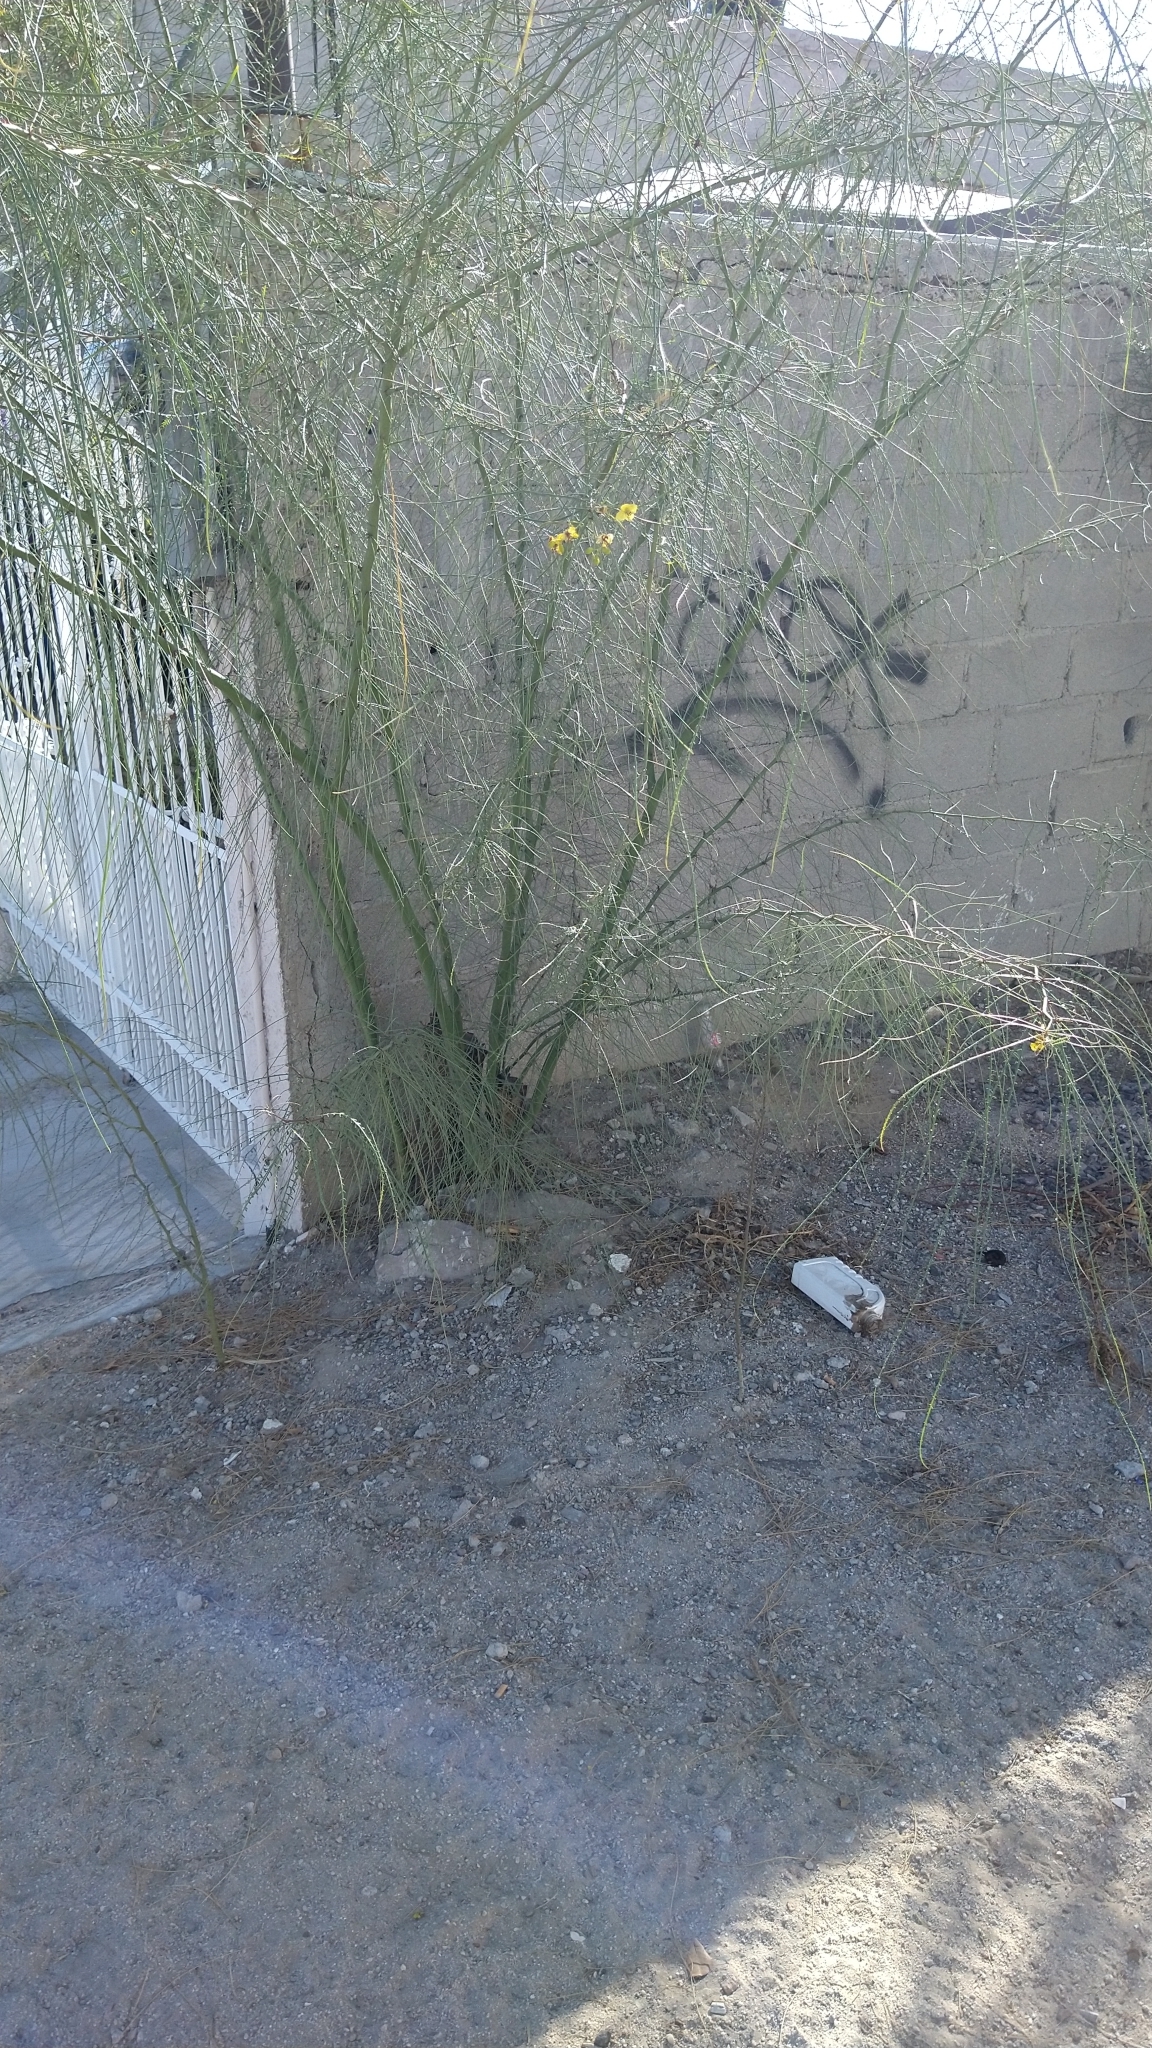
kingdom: Plantae
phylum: Tracheophyta
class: Magnoliopsida
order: Fabales
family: Fabaceae
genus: Parkinsonia
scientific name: Parkinsonia aculeata
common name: Jerusalem thorn
